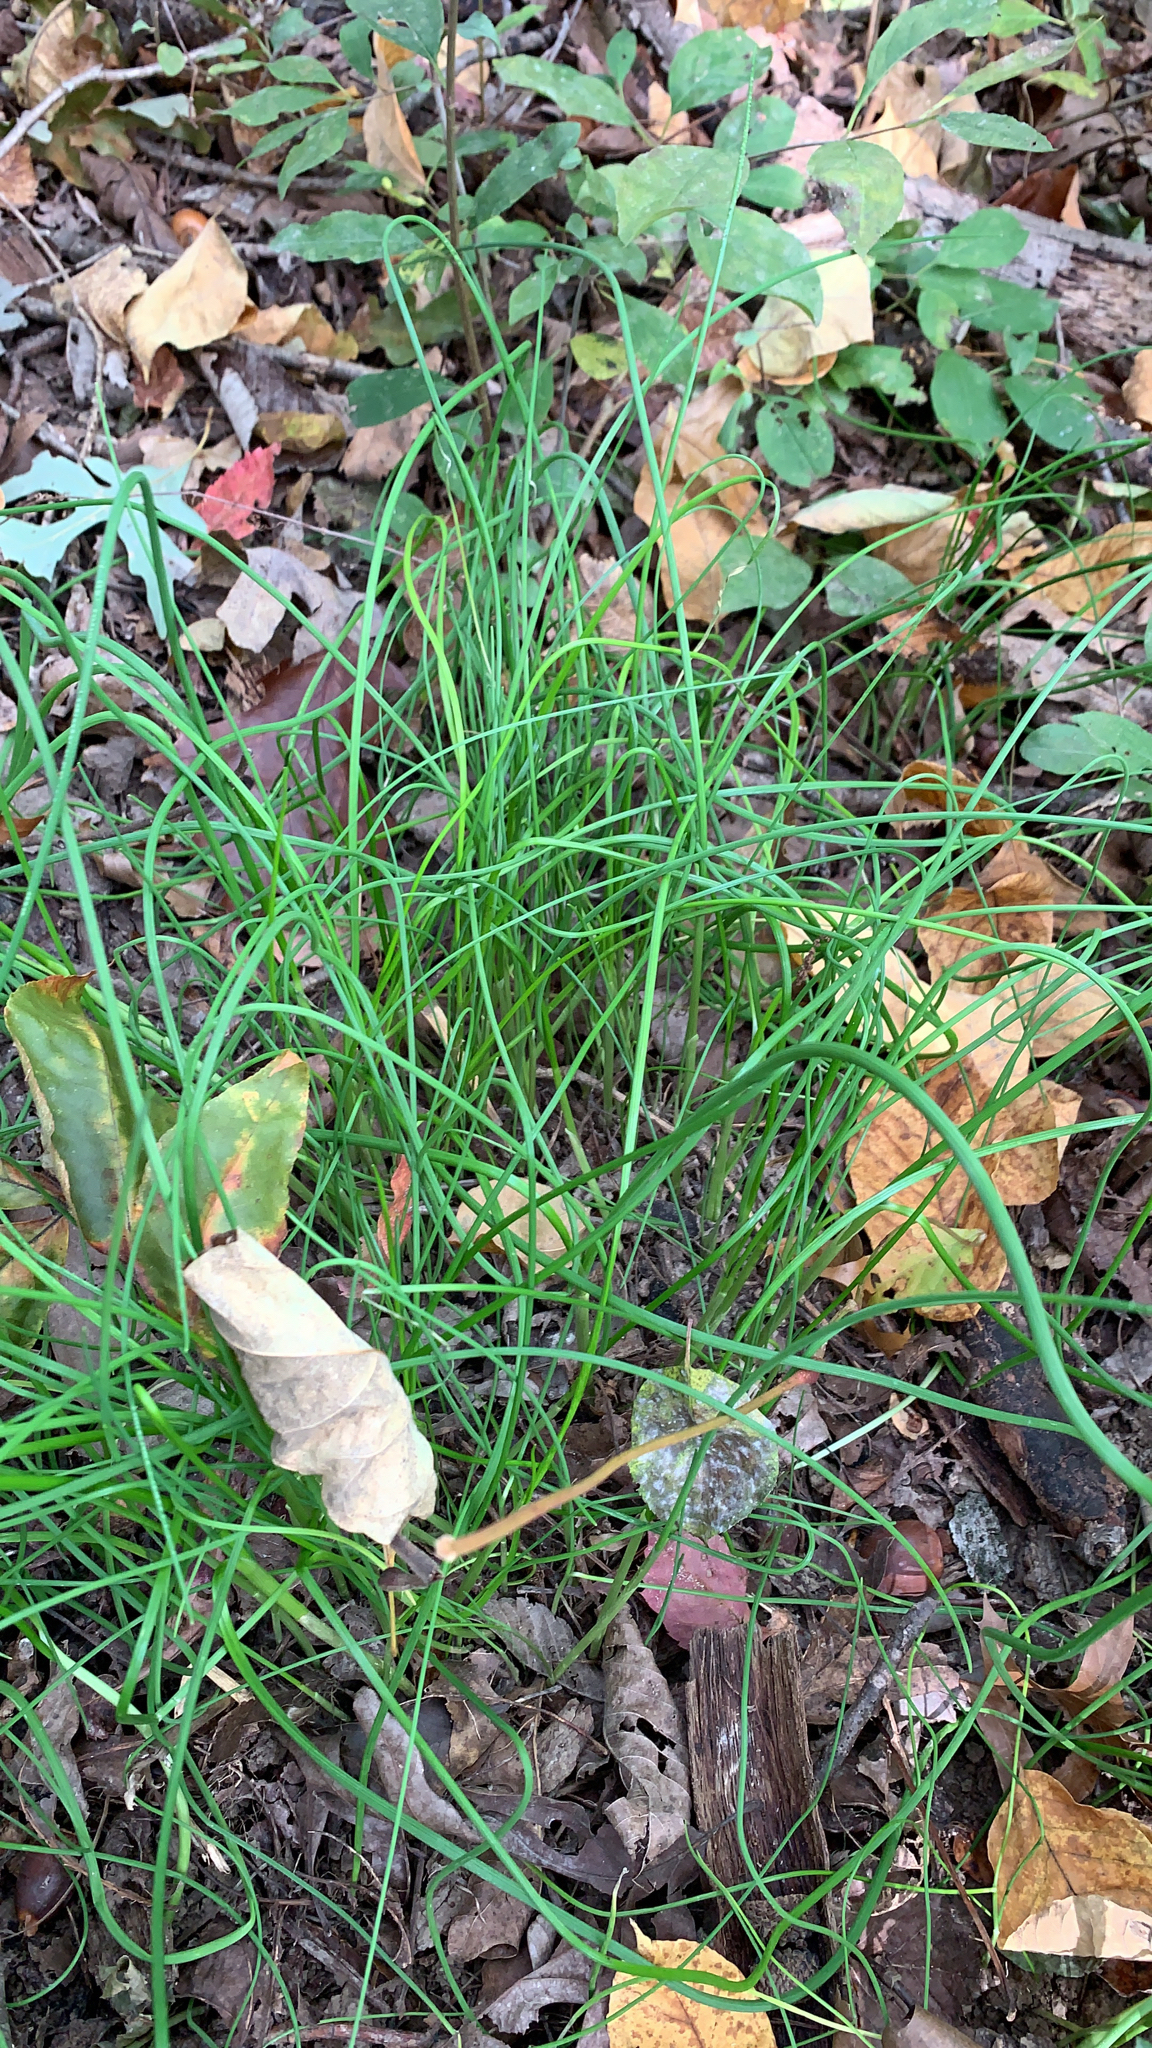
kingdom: Plantae
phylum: Tracheophyta
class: Liliopsida
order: Asparagales
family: Amaryllidaceae
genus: Allium
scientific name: Allium vineale
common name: Crow garlic
